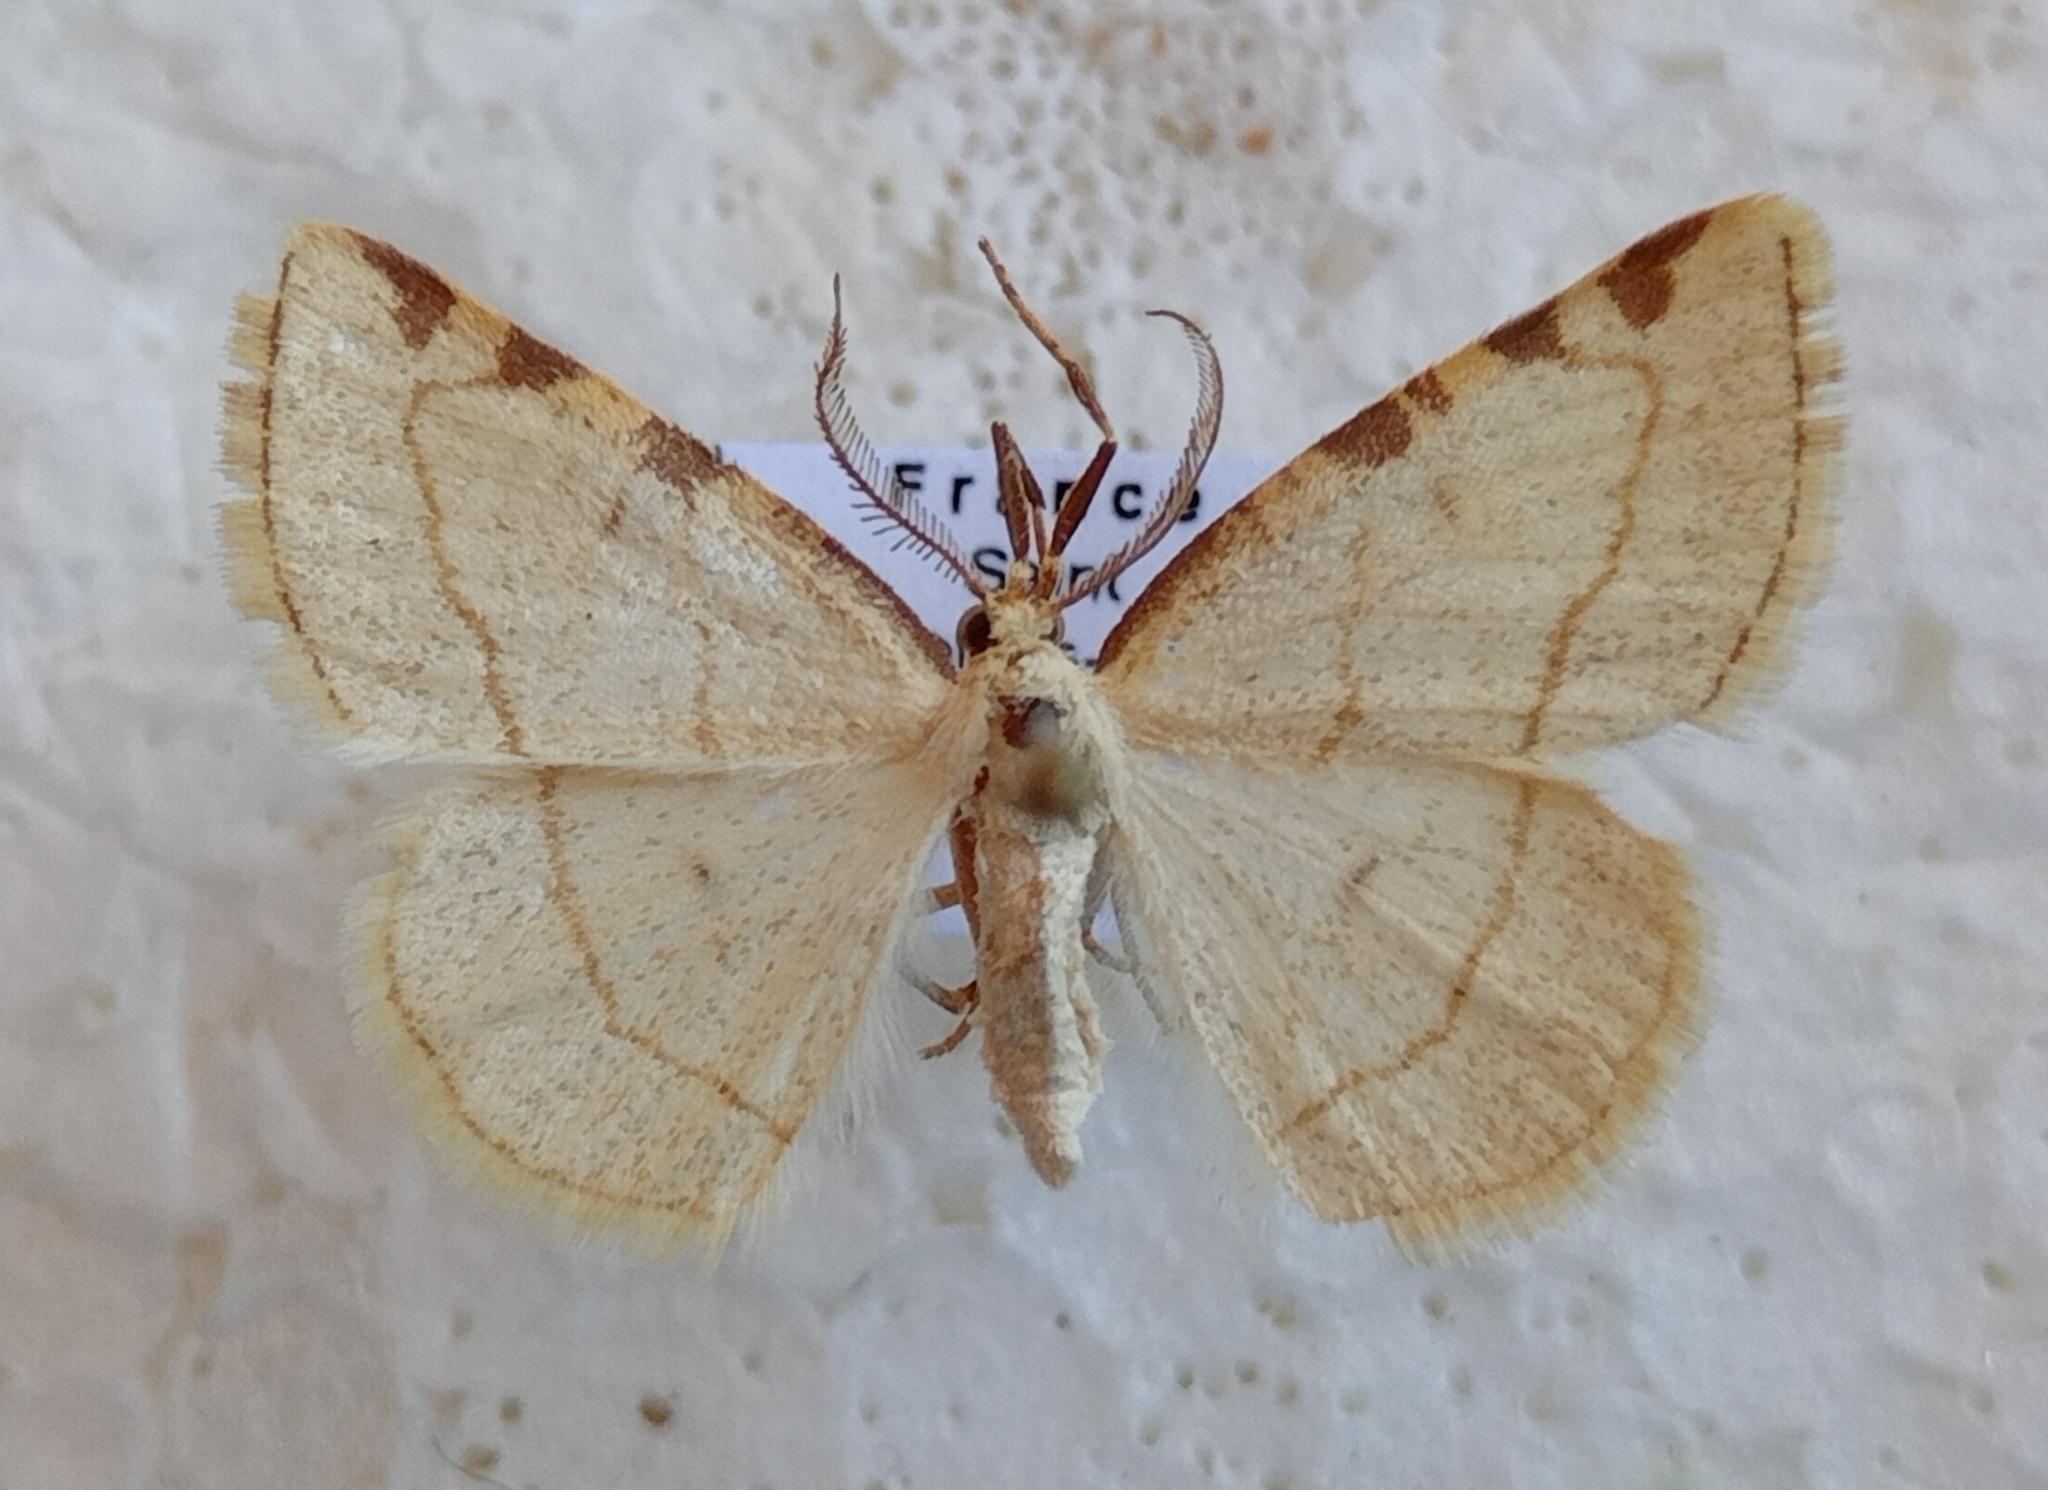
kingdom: Animalia
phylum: Arthropoda
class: Insecta
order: Lepidoptera
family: Geometridae
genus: Stegania
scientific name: Stegania trimaculata
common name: Dorset cream wave
